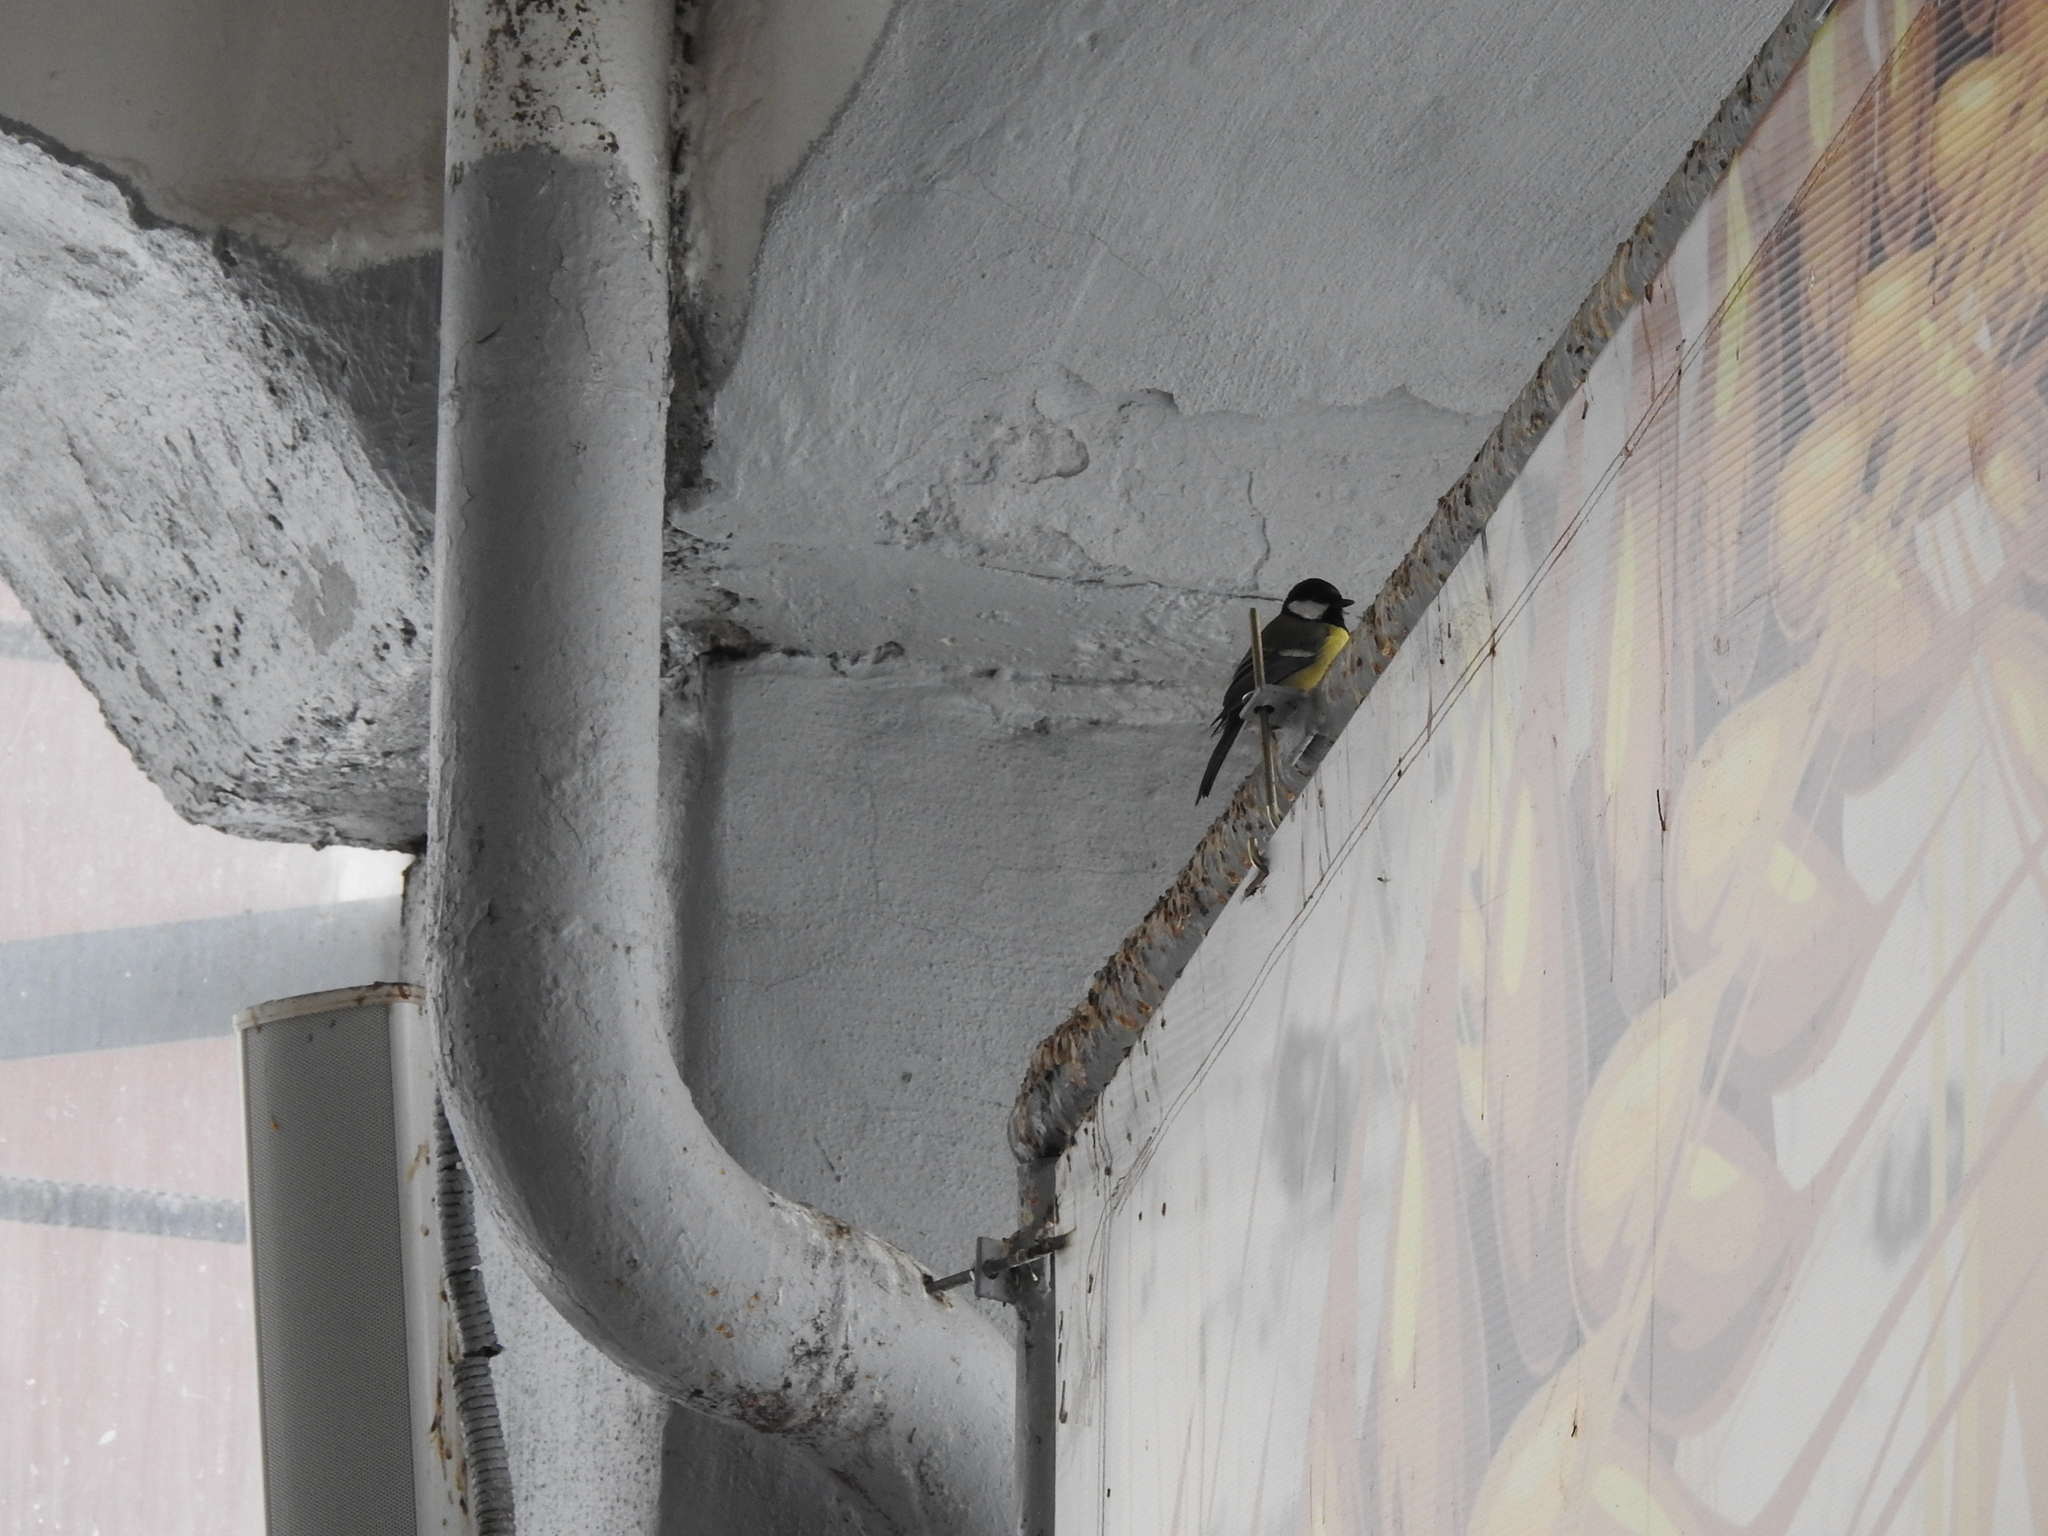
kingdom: Animalia
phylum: Chordata
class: Aves
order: Passeriformes
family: Paridae
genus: Parus
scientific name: Parus major
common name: Great tit
